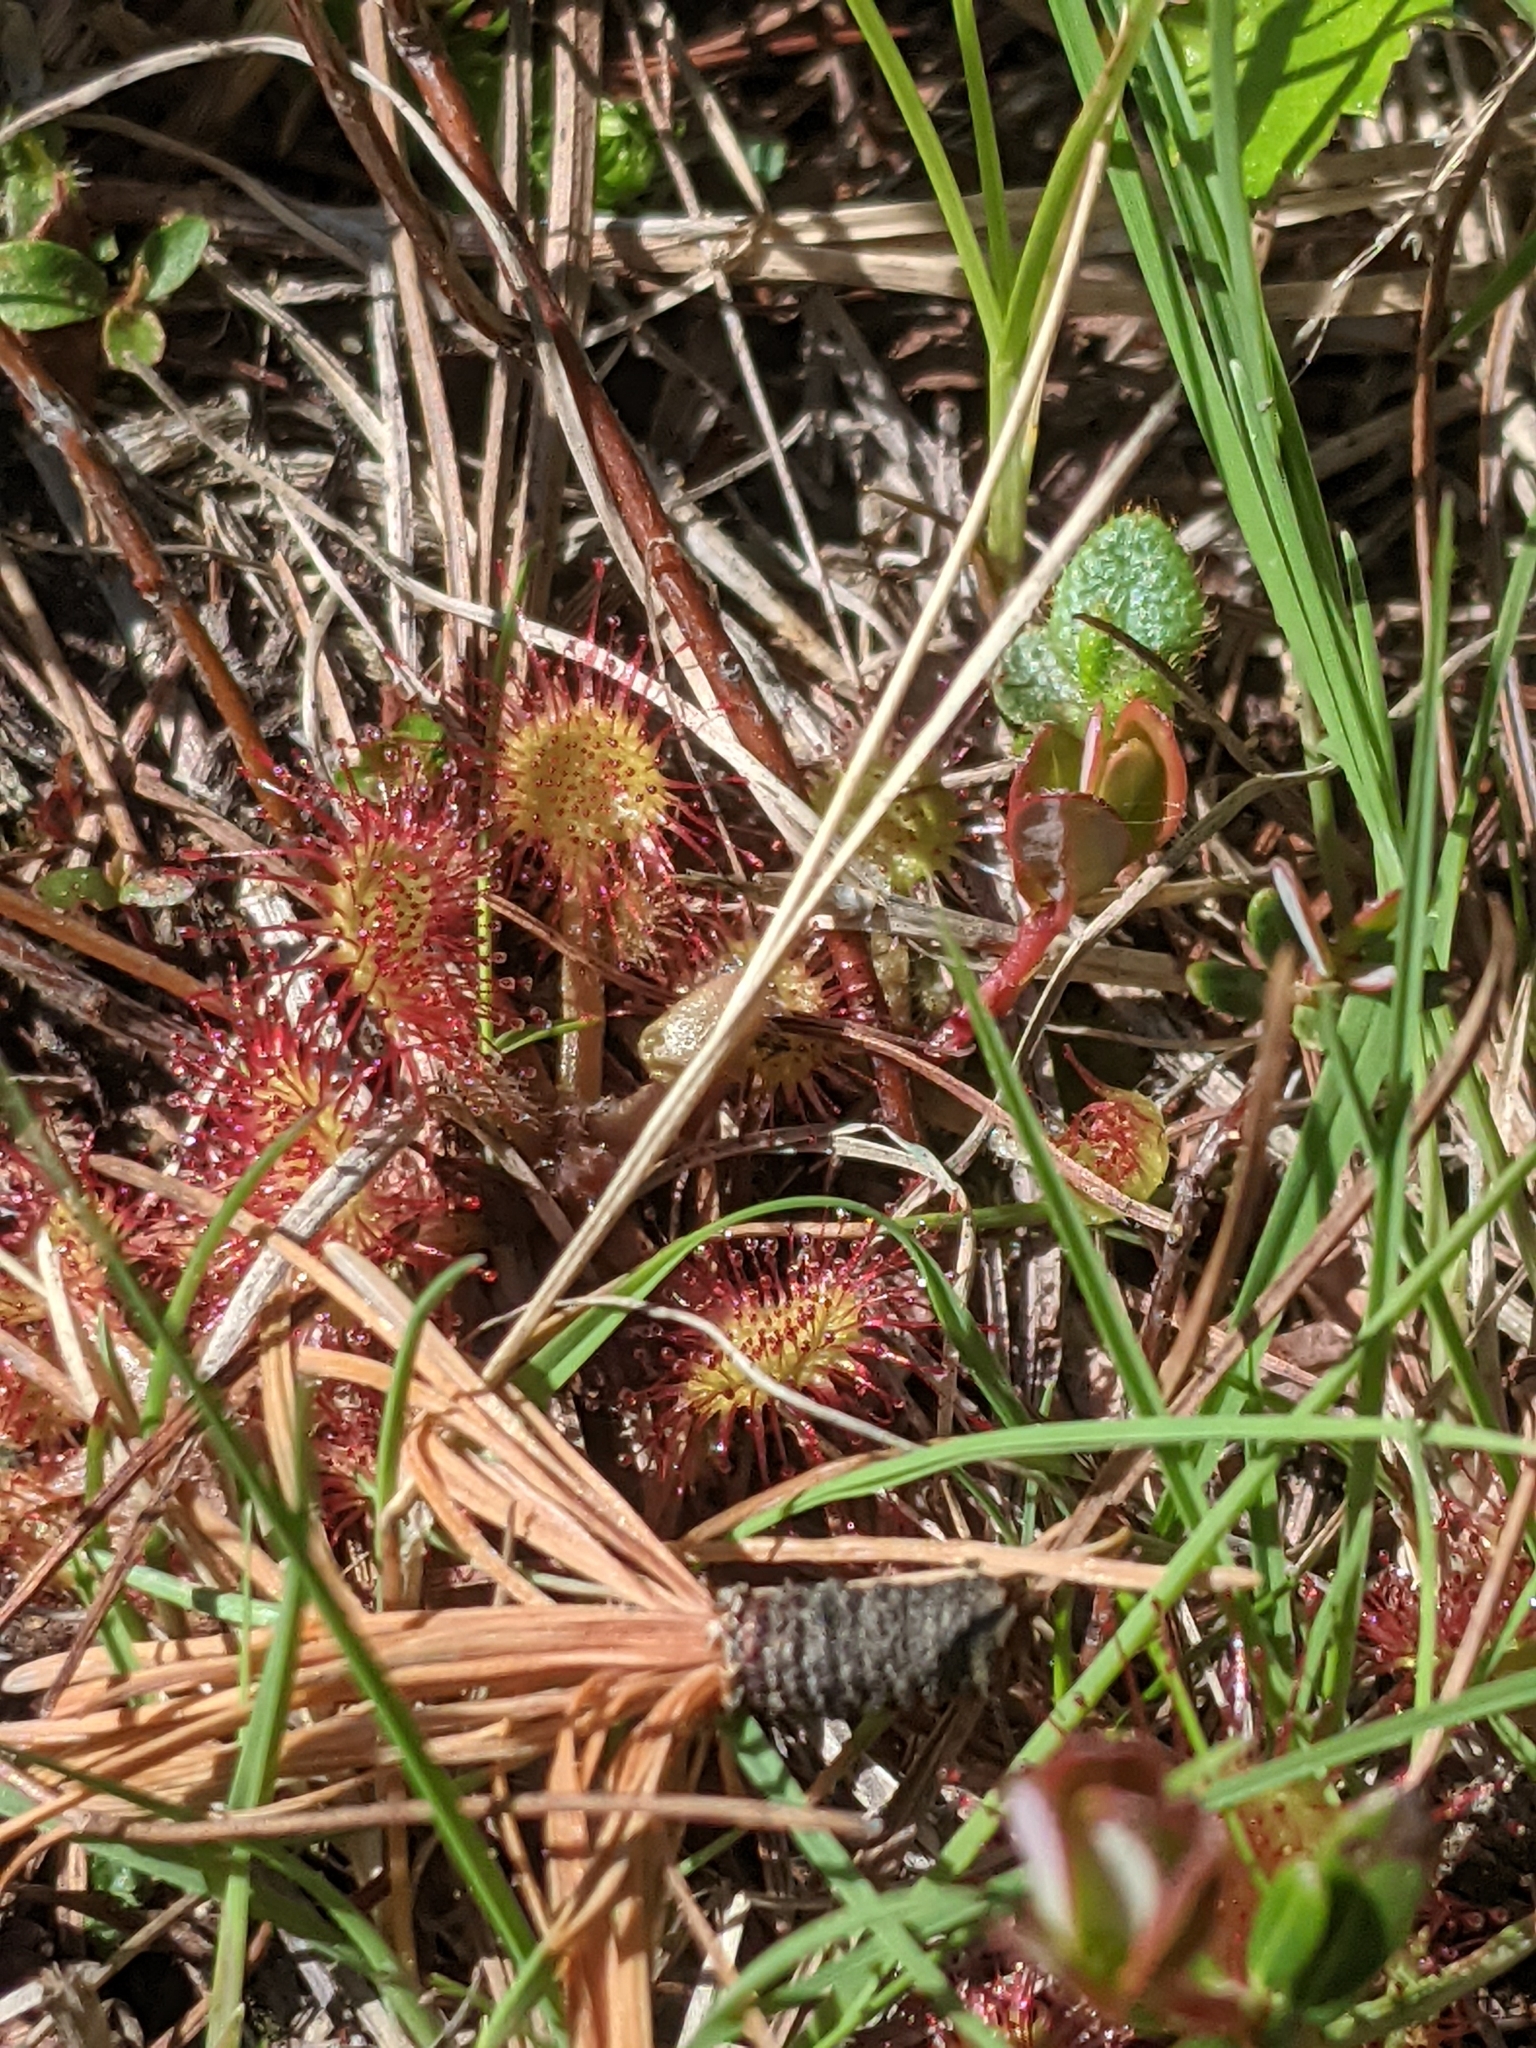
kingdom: Plantae
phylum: Tracheophyta
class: Magnoliopsida
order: Caryophyllales
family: Droseraceae
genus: Drosera
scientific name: Drosera rotundifolia
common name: Round-leaved sundew
